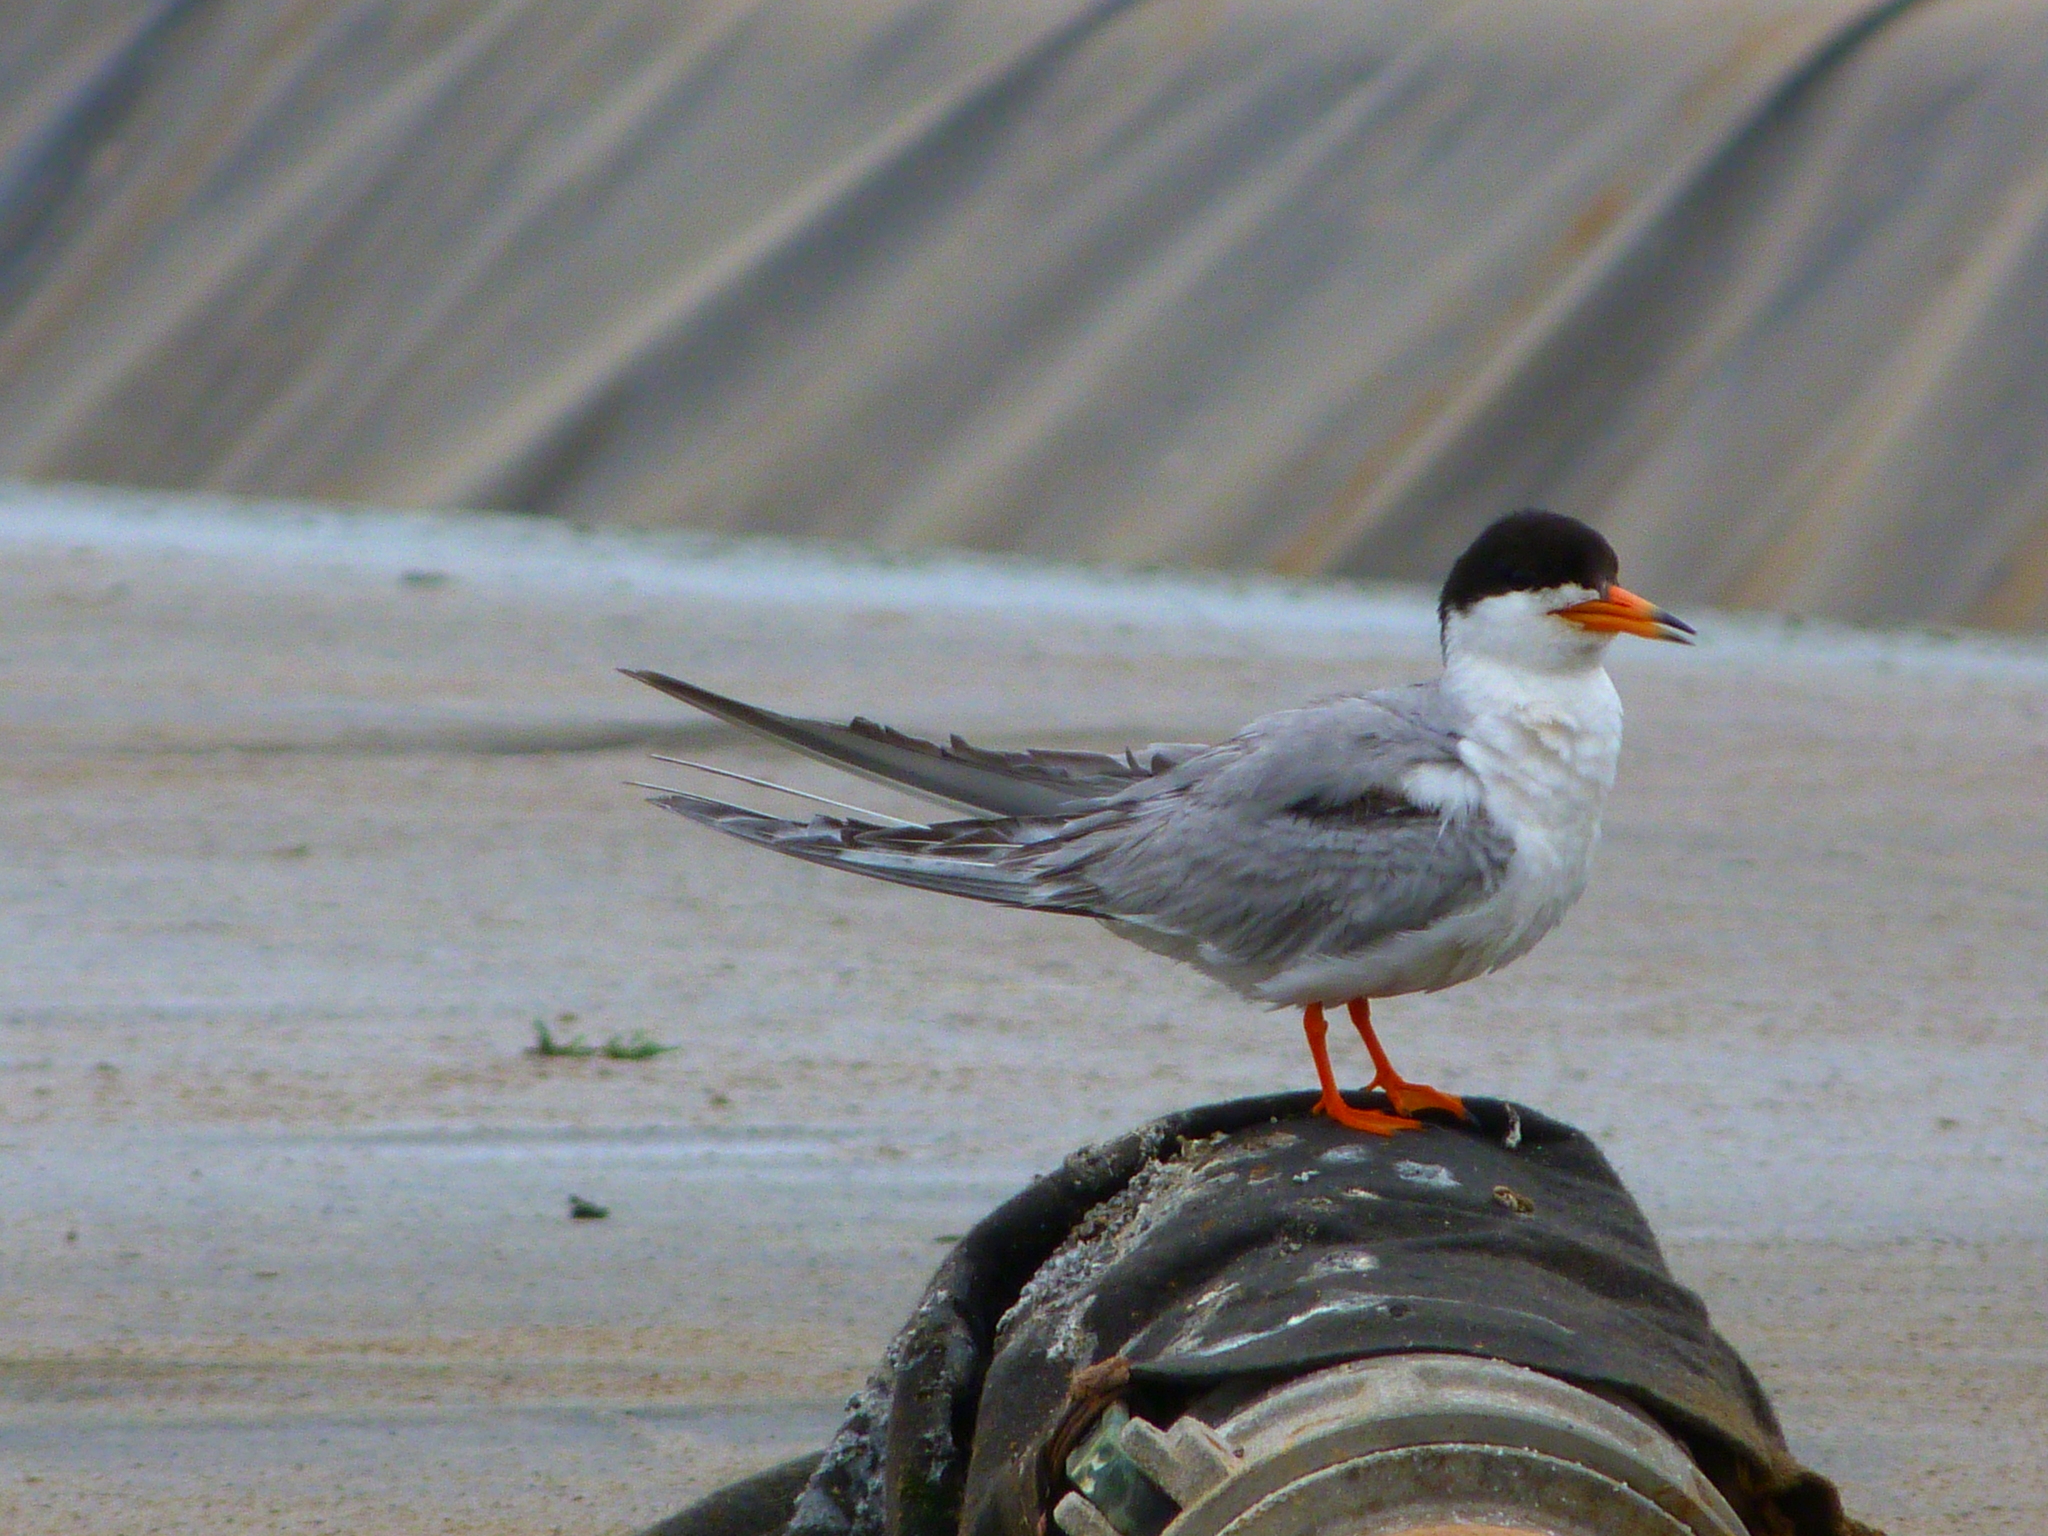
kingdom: Animalia
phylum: Chordata
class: Aves
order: Charadriiformes
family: Laridae
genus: Sterna
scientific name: Sterna forsteri
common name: Forster's tern
